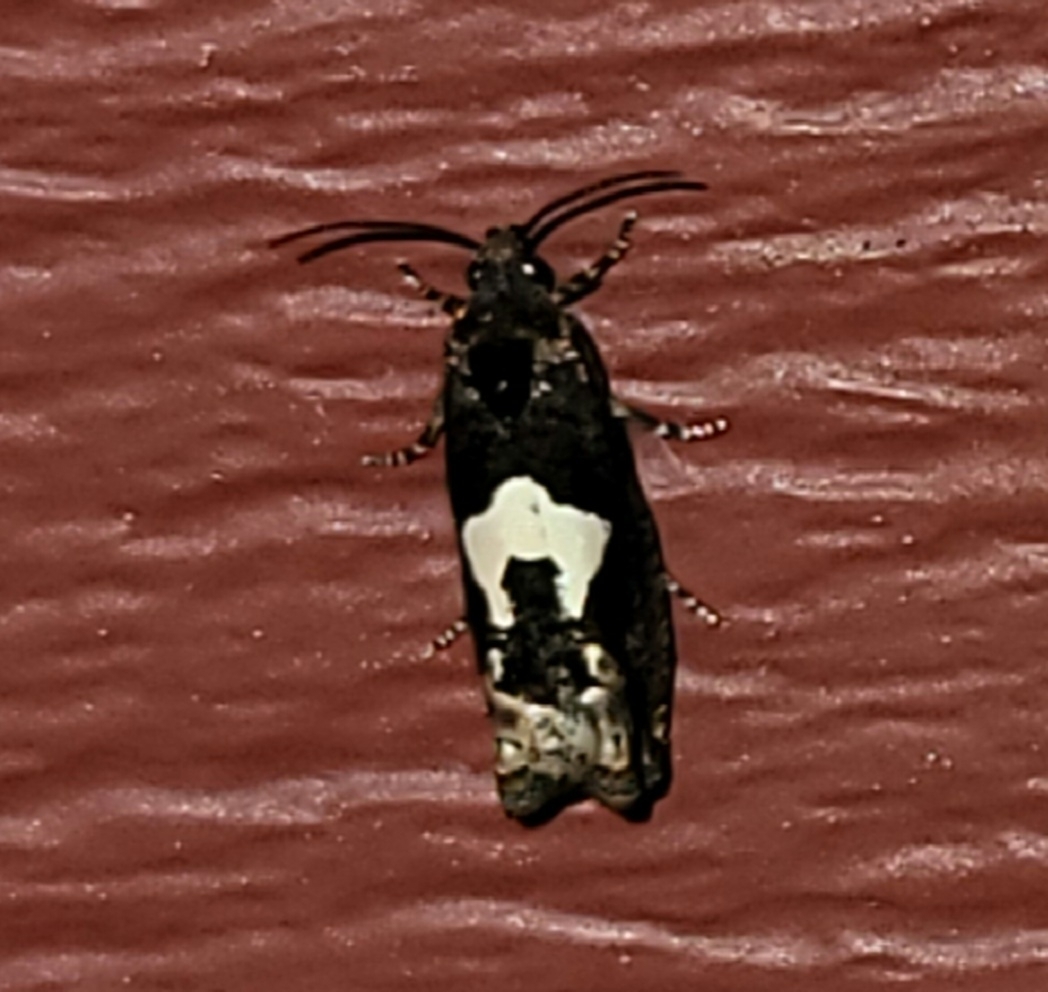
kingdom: Animalia
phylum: Arthropoda
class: Insecta
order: Lepidoptera
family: Tortricidae
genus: Epiblema
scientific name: Epiblema otiosana
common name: Bidens borer moth
